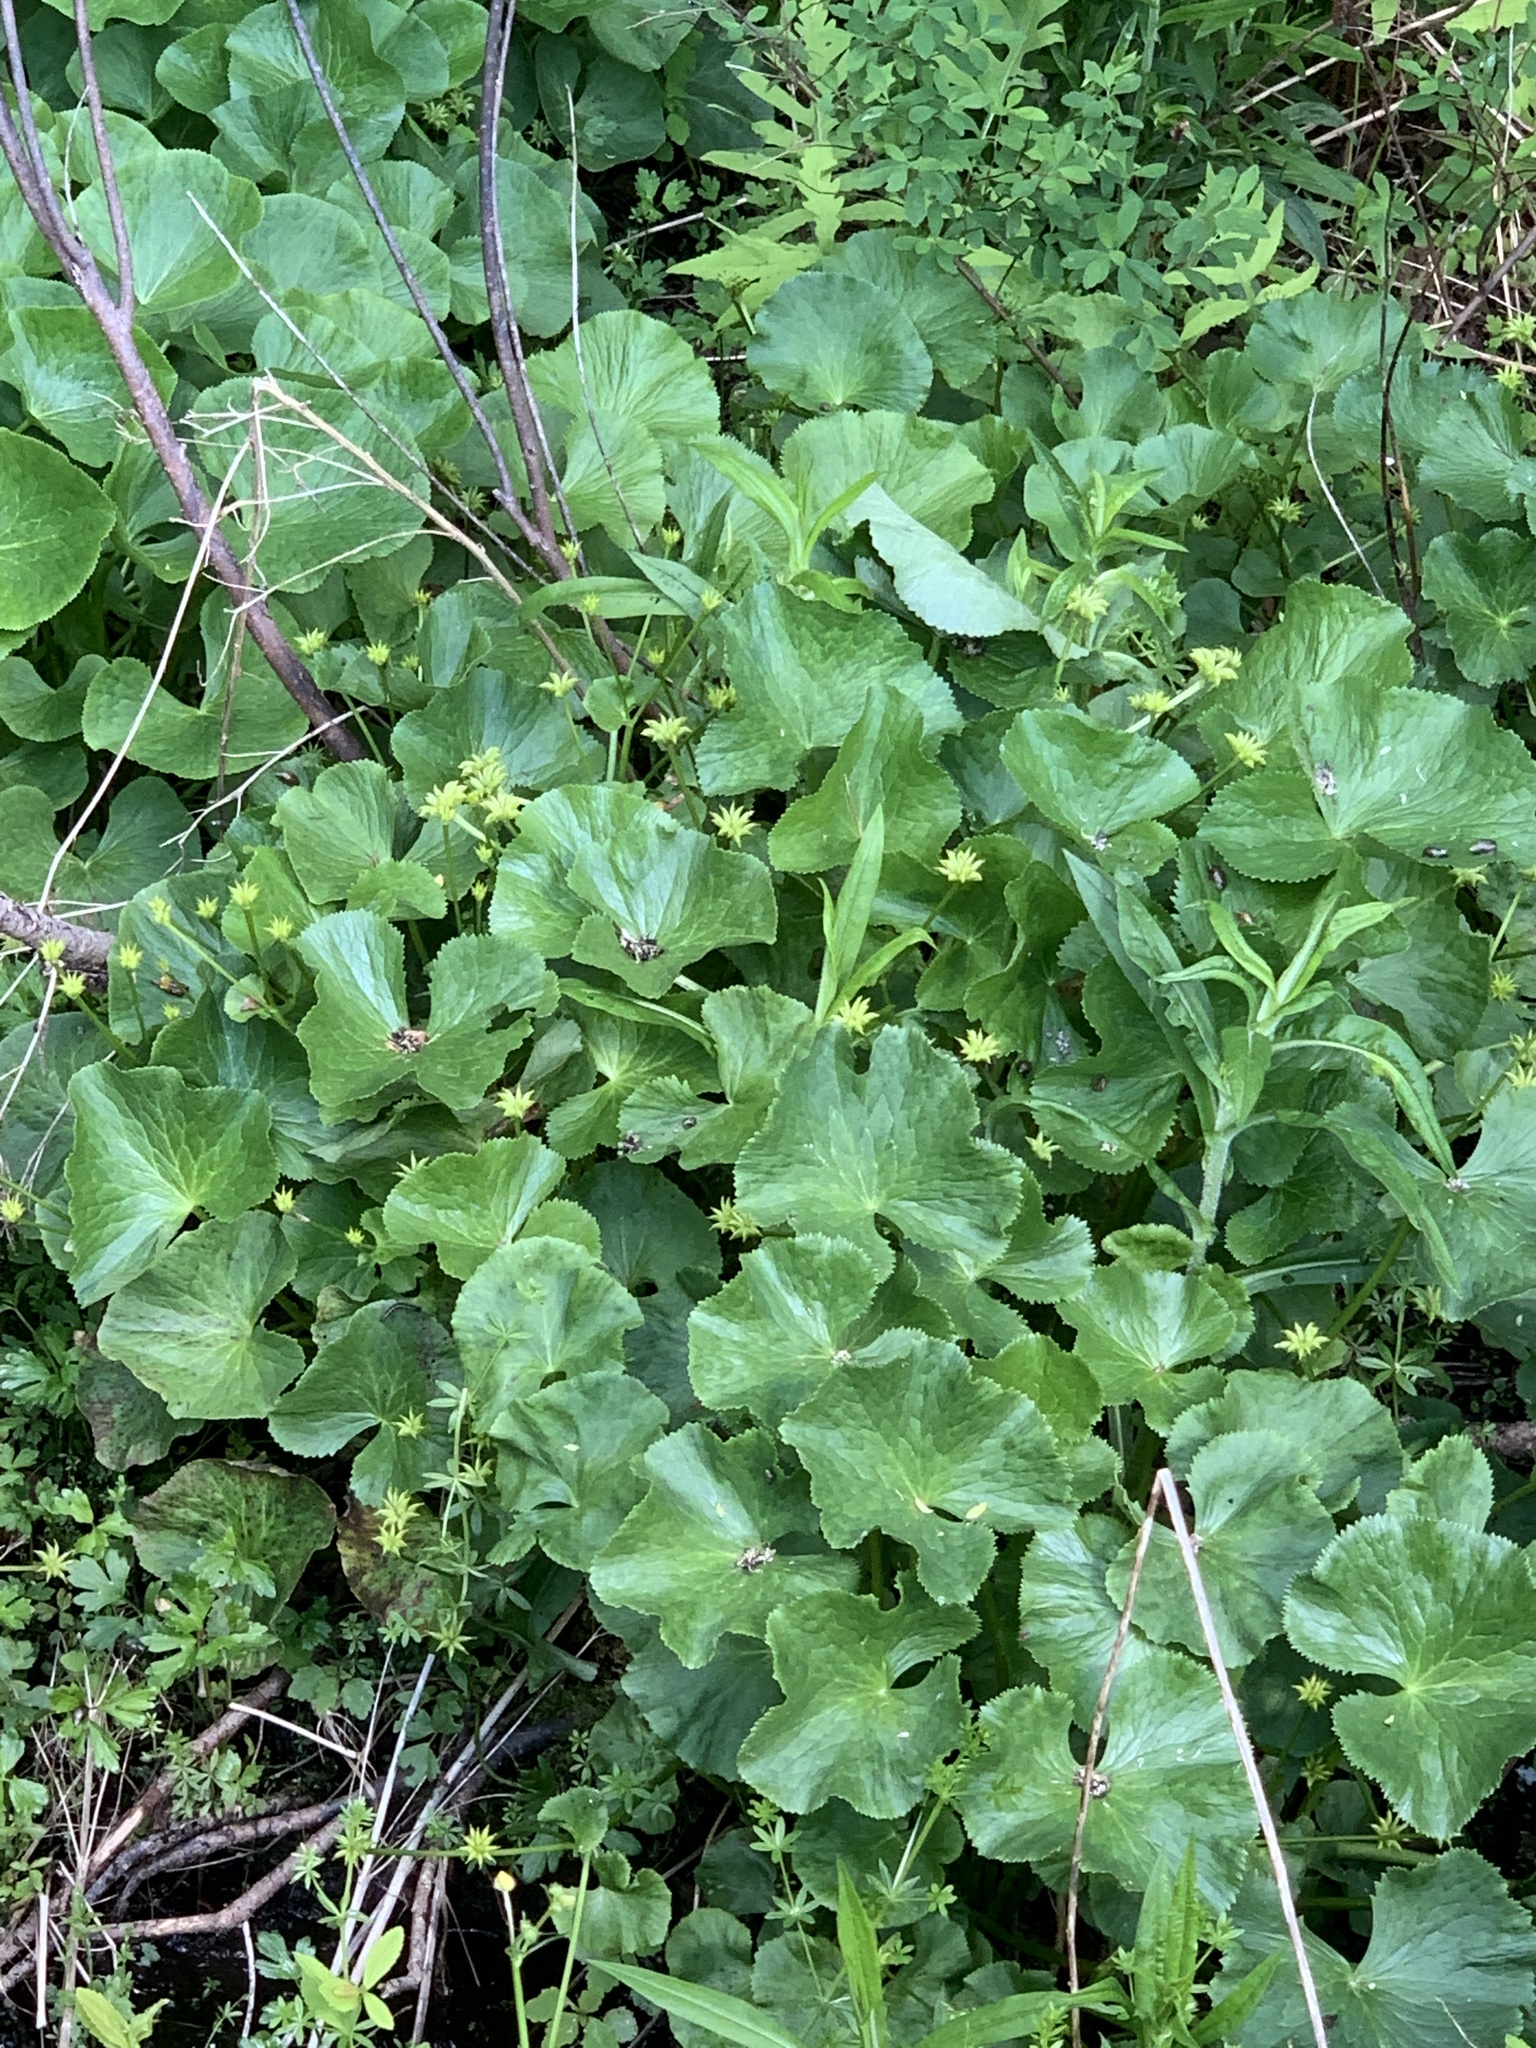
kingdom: Plantae
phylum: Tracheophyta
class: Magnoliopsida
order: Ranunculales
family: Ranunculaceae
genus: Caltha
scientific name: Caltha palustris
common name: Marsh marigold
